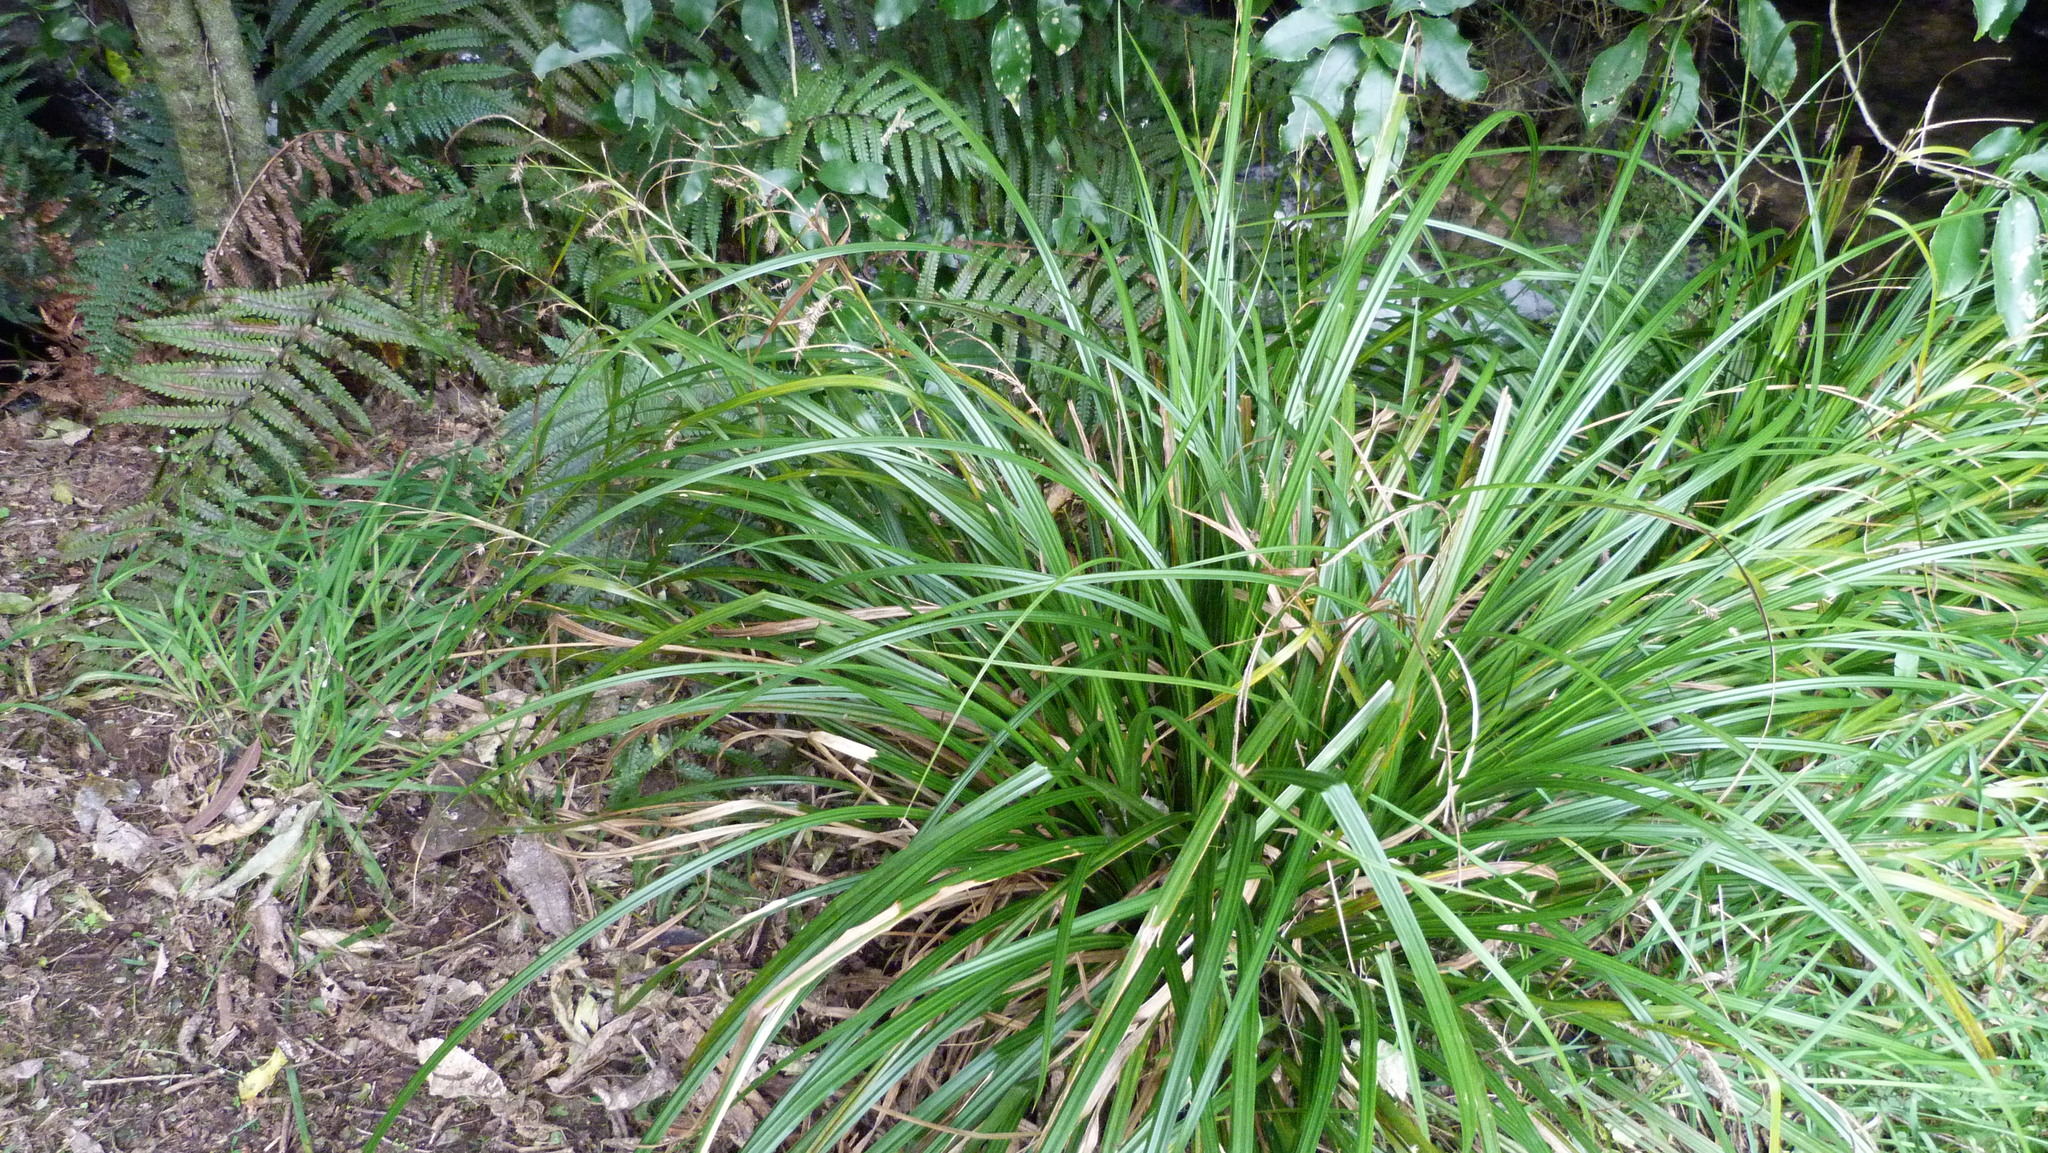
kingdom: Plantae
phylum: Tracheophyta
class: Liliopsida
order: Poales
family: Cyperaceae
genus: Carex
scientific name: Carex forsteri
